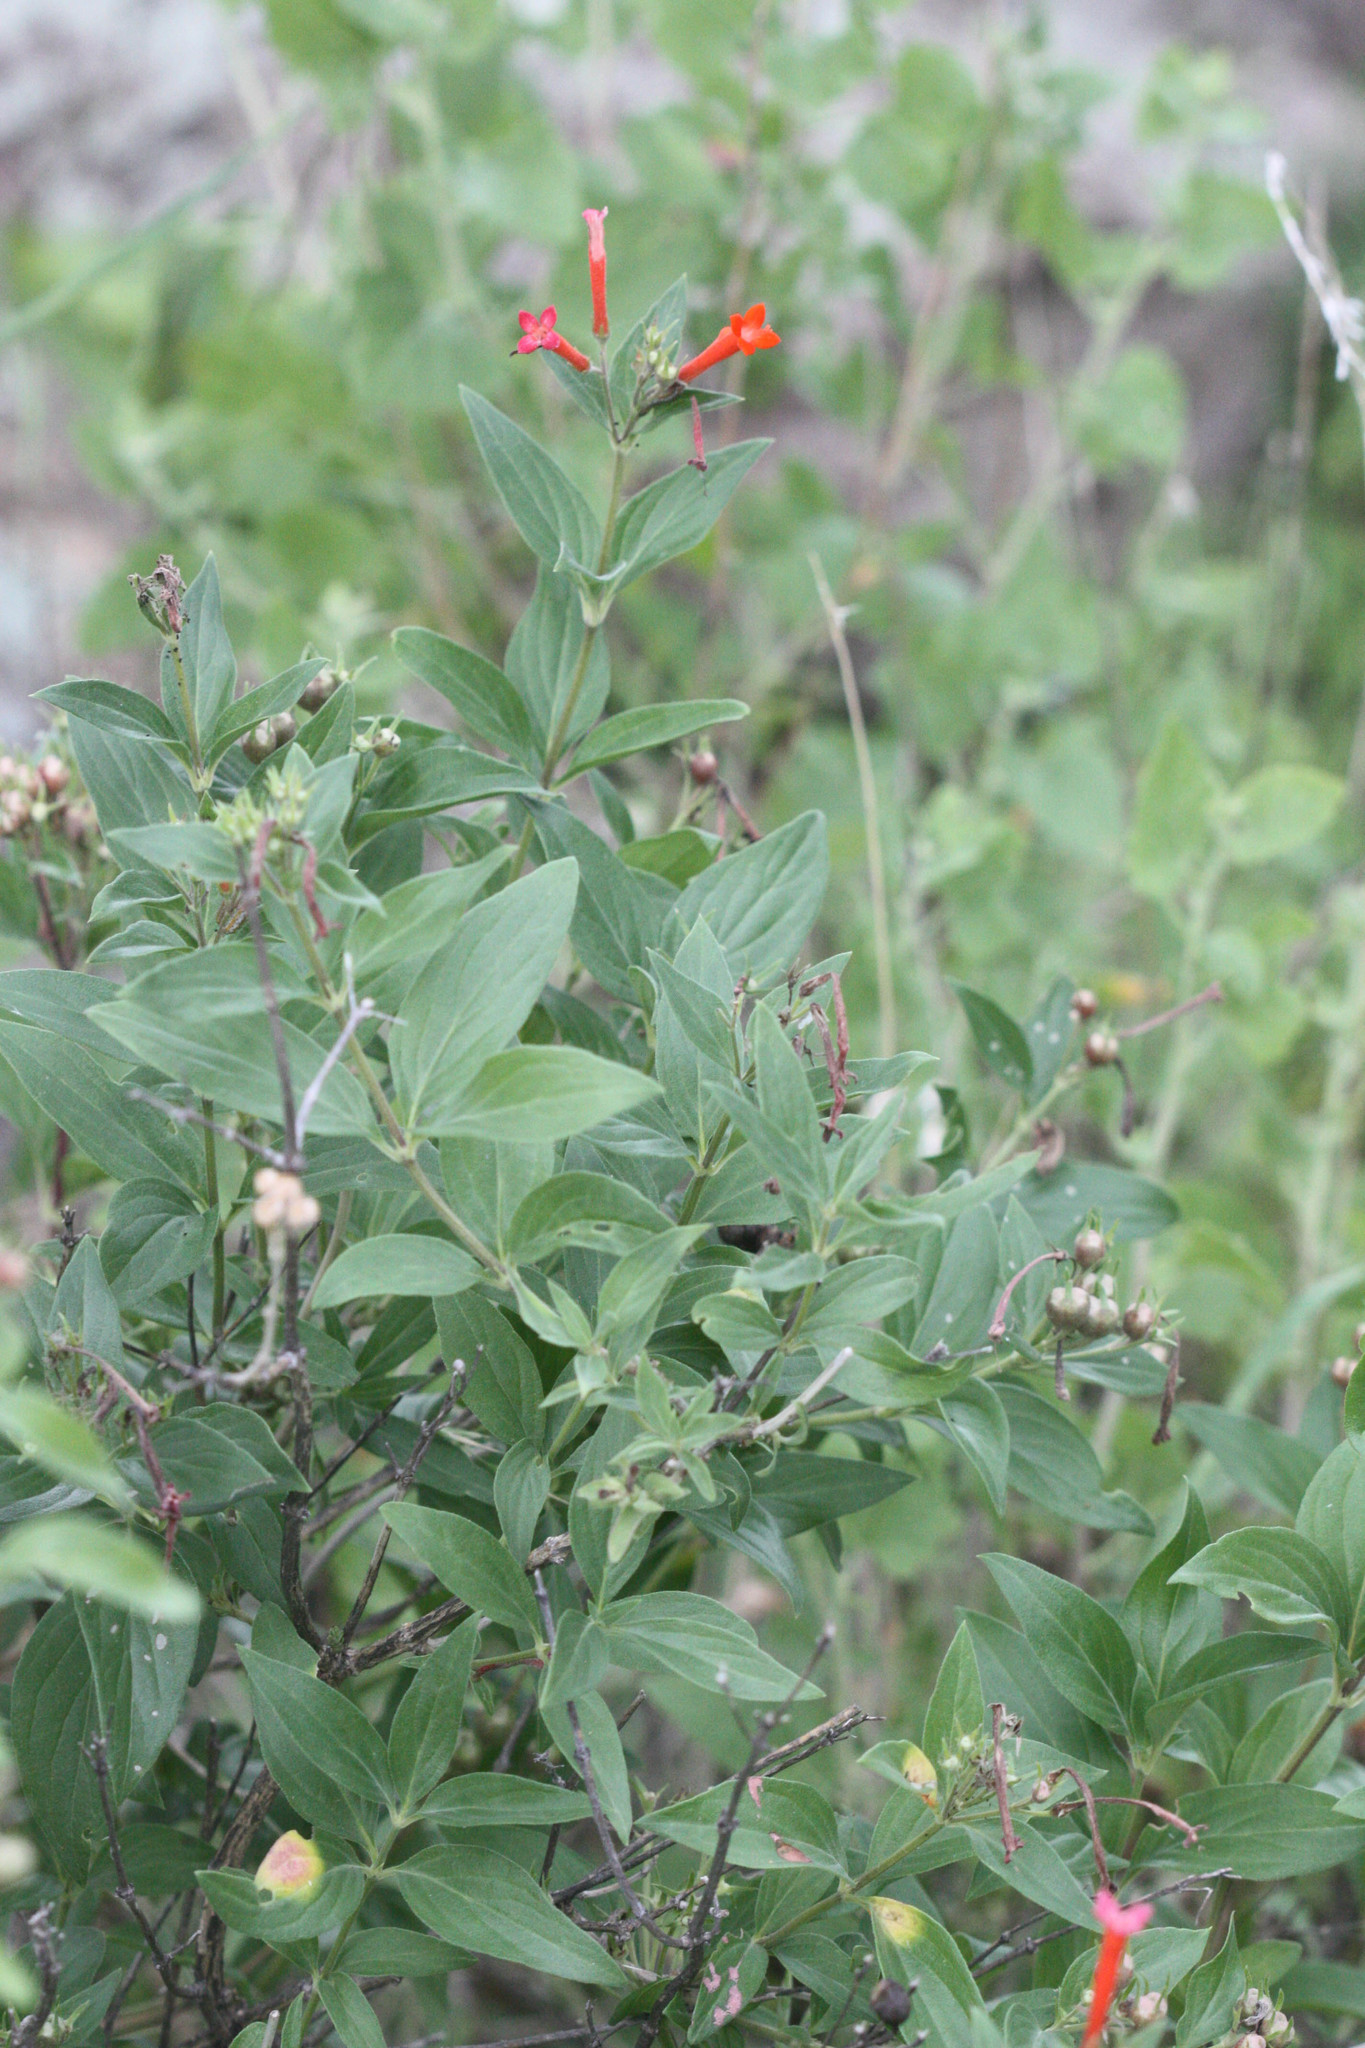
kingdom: Plantae
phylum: Tracheophyta
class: Magnoliopsida
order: Gentianales
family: Rubiaceae
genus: Bouvardia
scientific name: Bouvardia ternifolia
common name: Scarlet bouvardia
